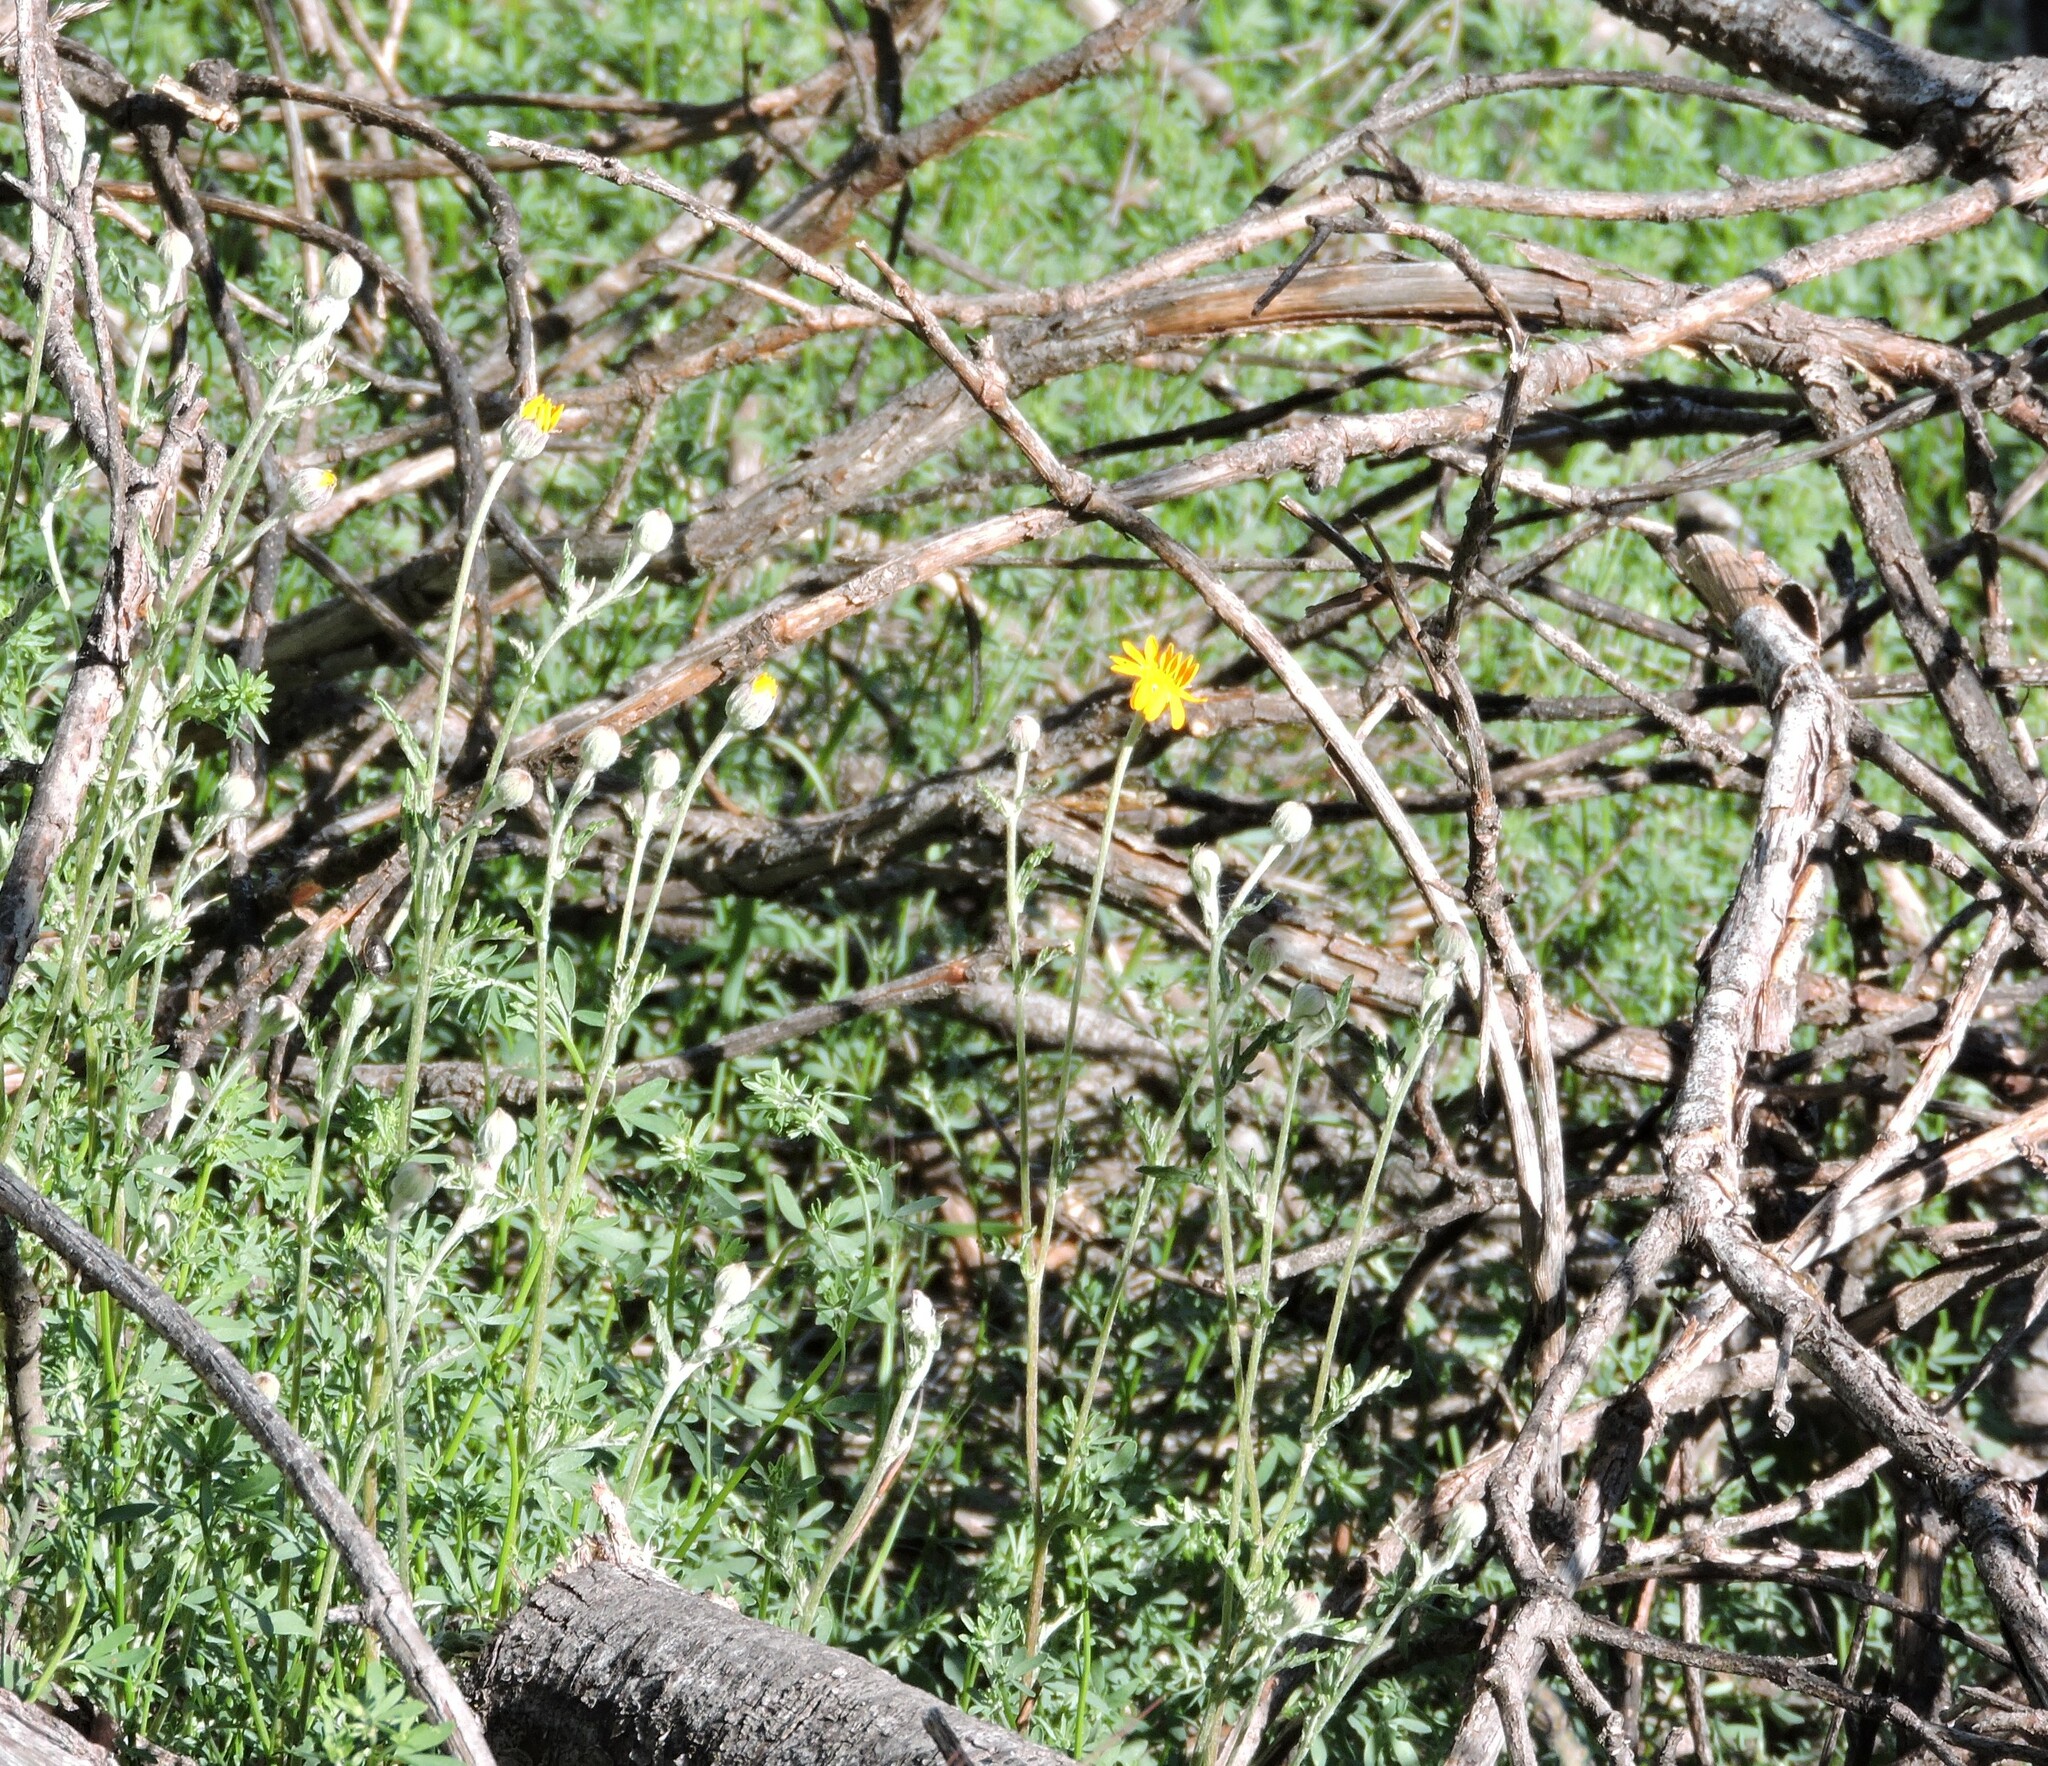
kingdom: Plantae
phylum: Tracheophyta
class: Magnoliopsida
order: Asterales
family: Asteraceae
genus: Eriophyllum
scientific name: Eriophyllum lanatum
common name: Common woolly-sunflower
